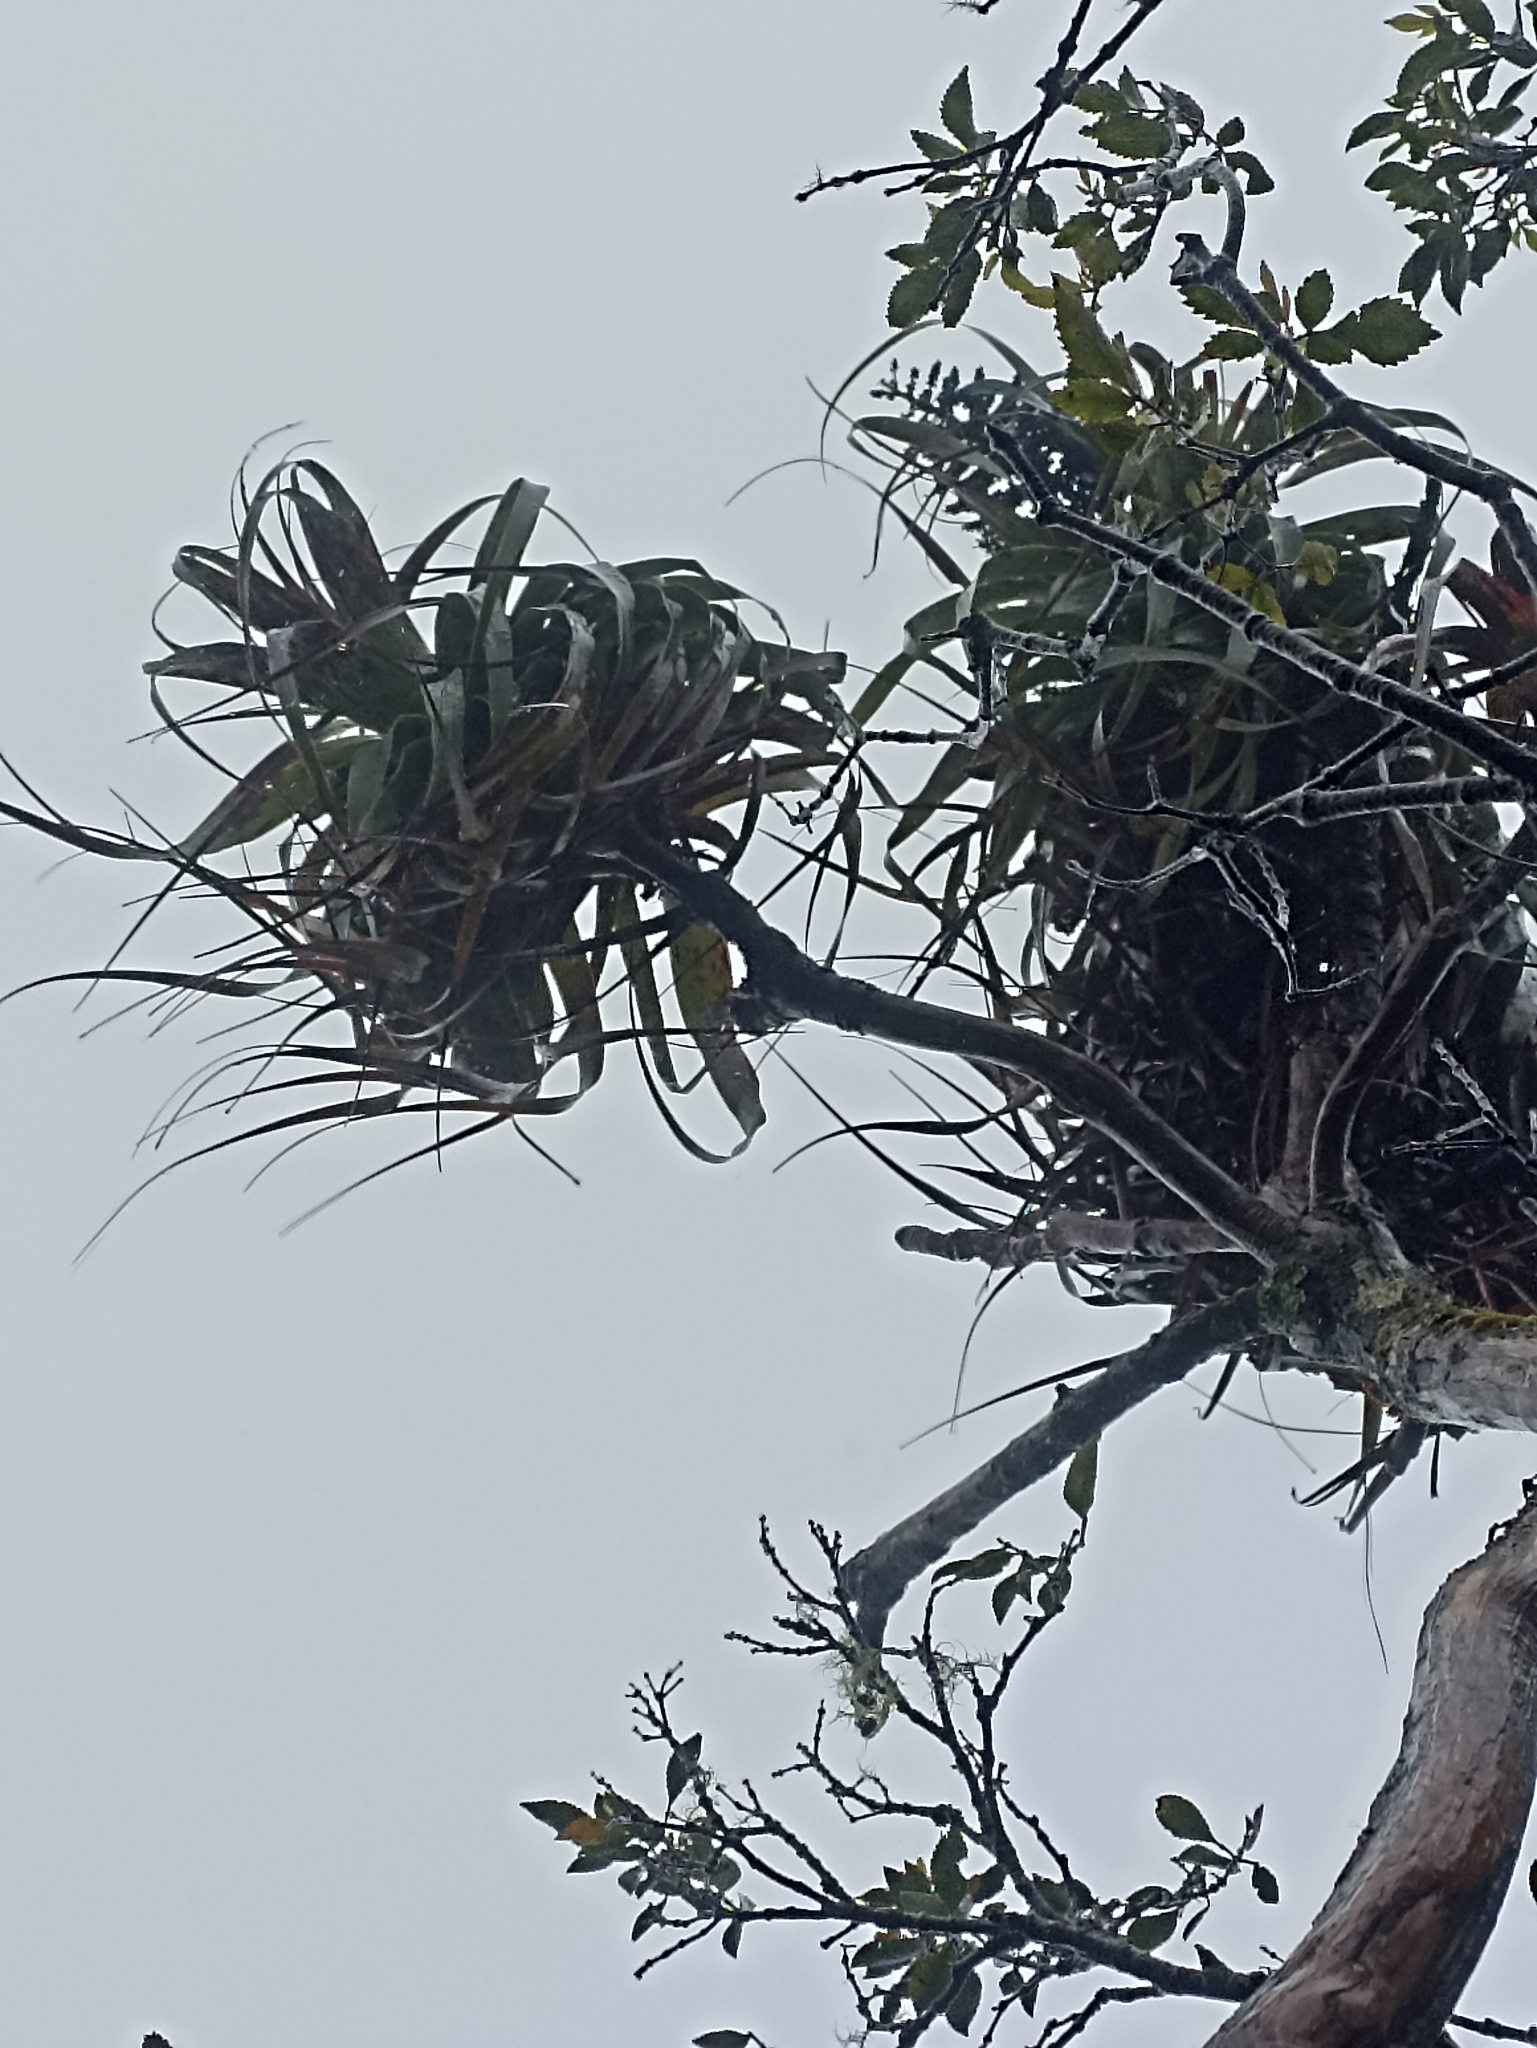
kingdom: Plantae
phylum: Tracheophyta
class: Magnoliopsida
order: Ericales
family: Ericaceae
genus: Dracophyllum
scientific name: Dracophyllum traversii
